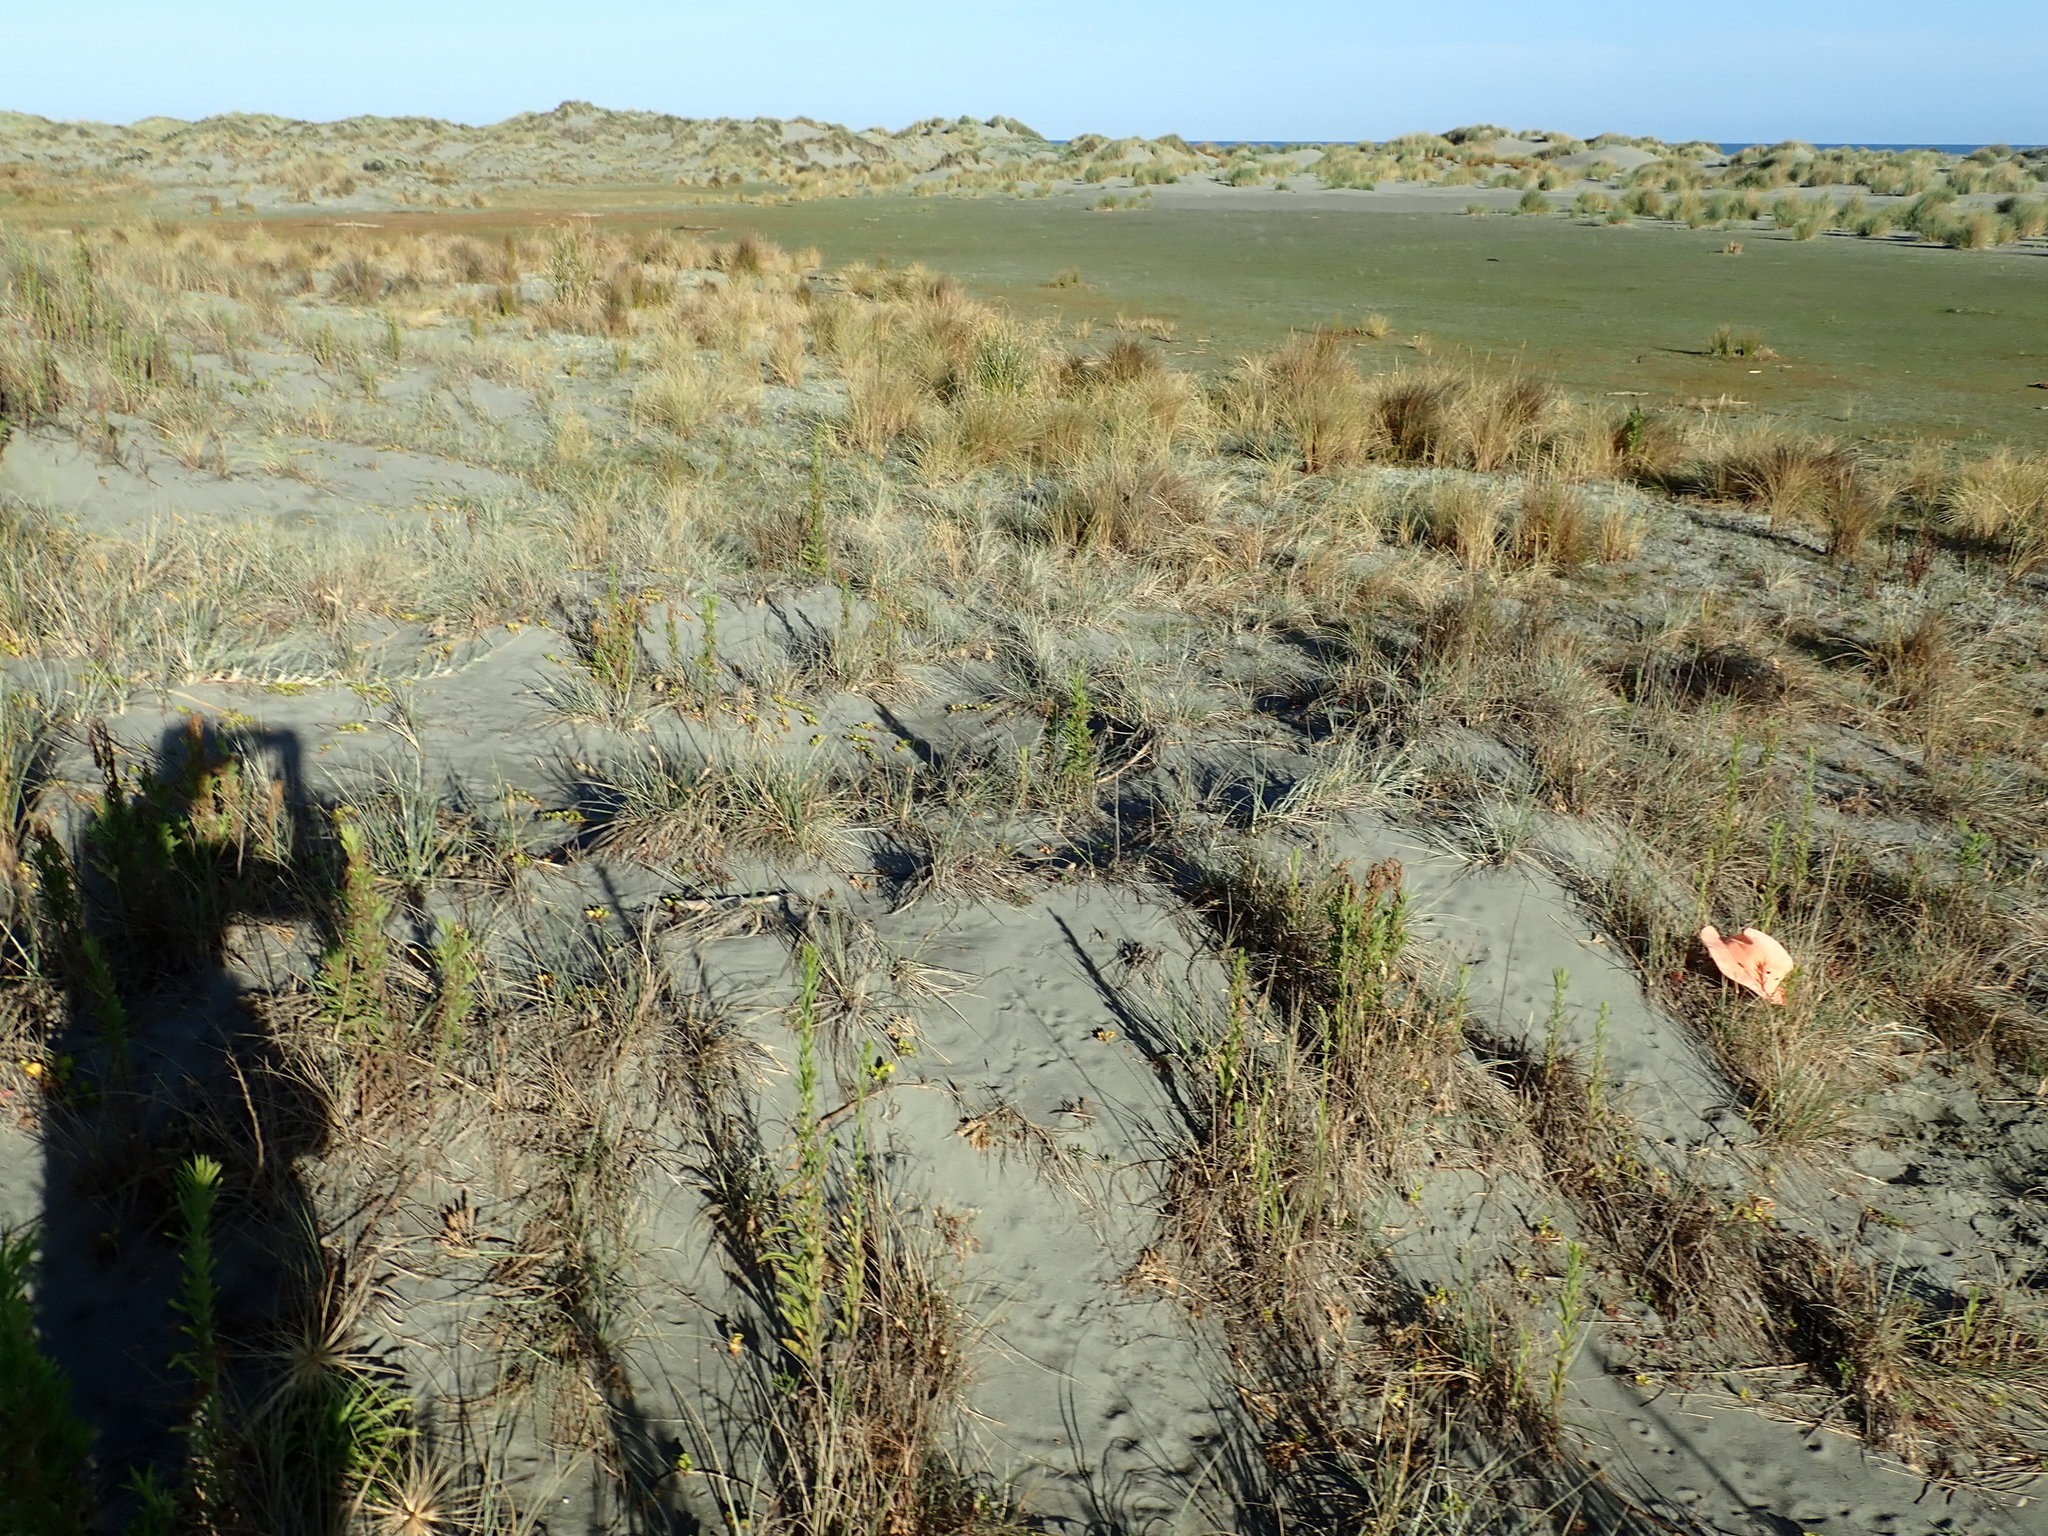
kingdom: Animalia
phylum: Arthropoda
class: Arachnida
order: Araneae
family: Theridiidae
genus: Latrodectus
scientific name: Latrodectus katipo
